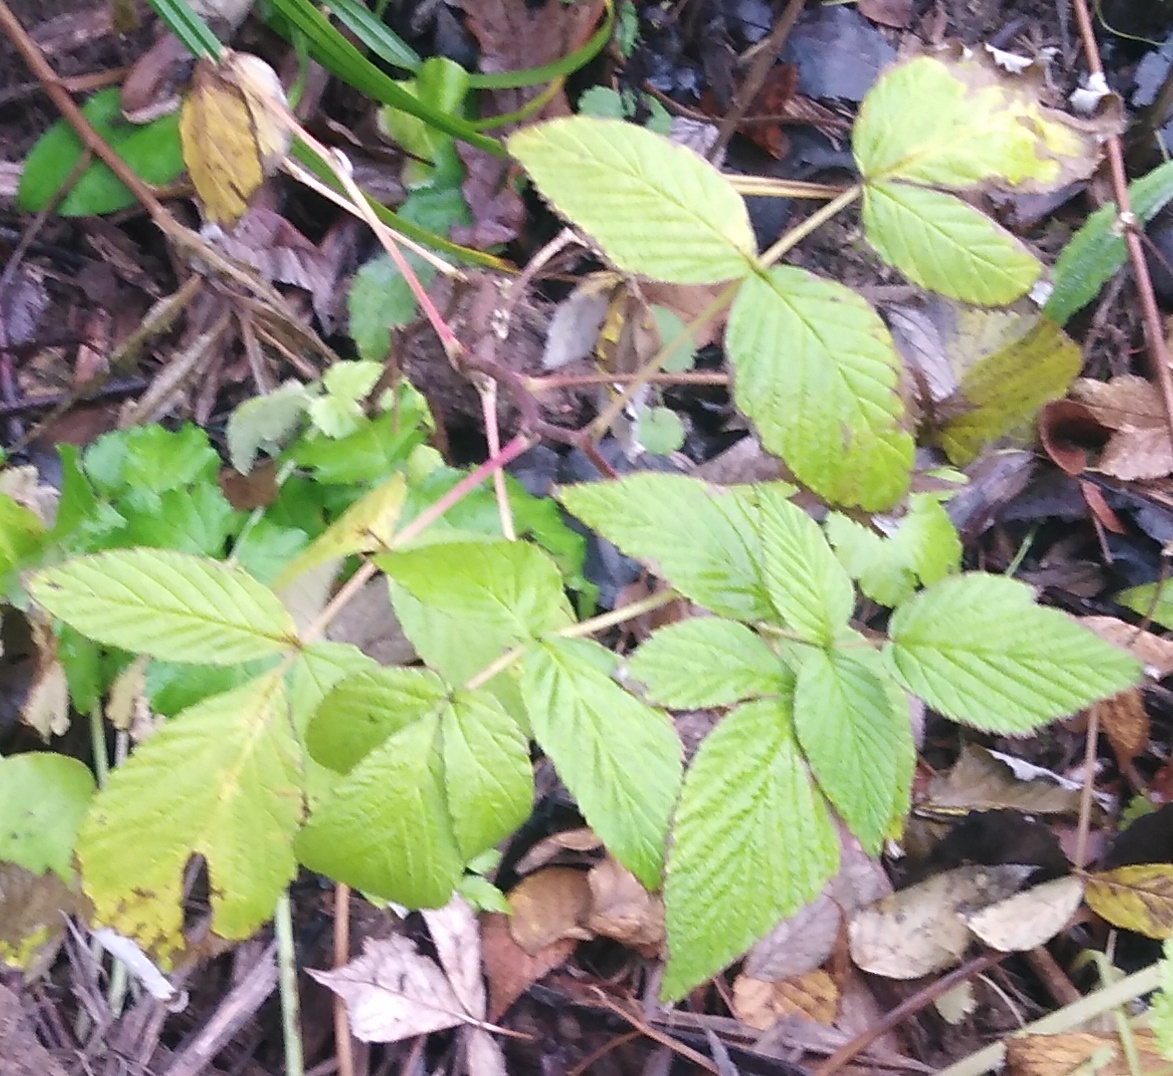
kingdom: Plantae
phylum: Tracheophyta
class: Magnoliopsida
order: Rosales
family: Rosaceae
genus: Rubus
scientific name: Rubus idaeus
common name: Raspberry
